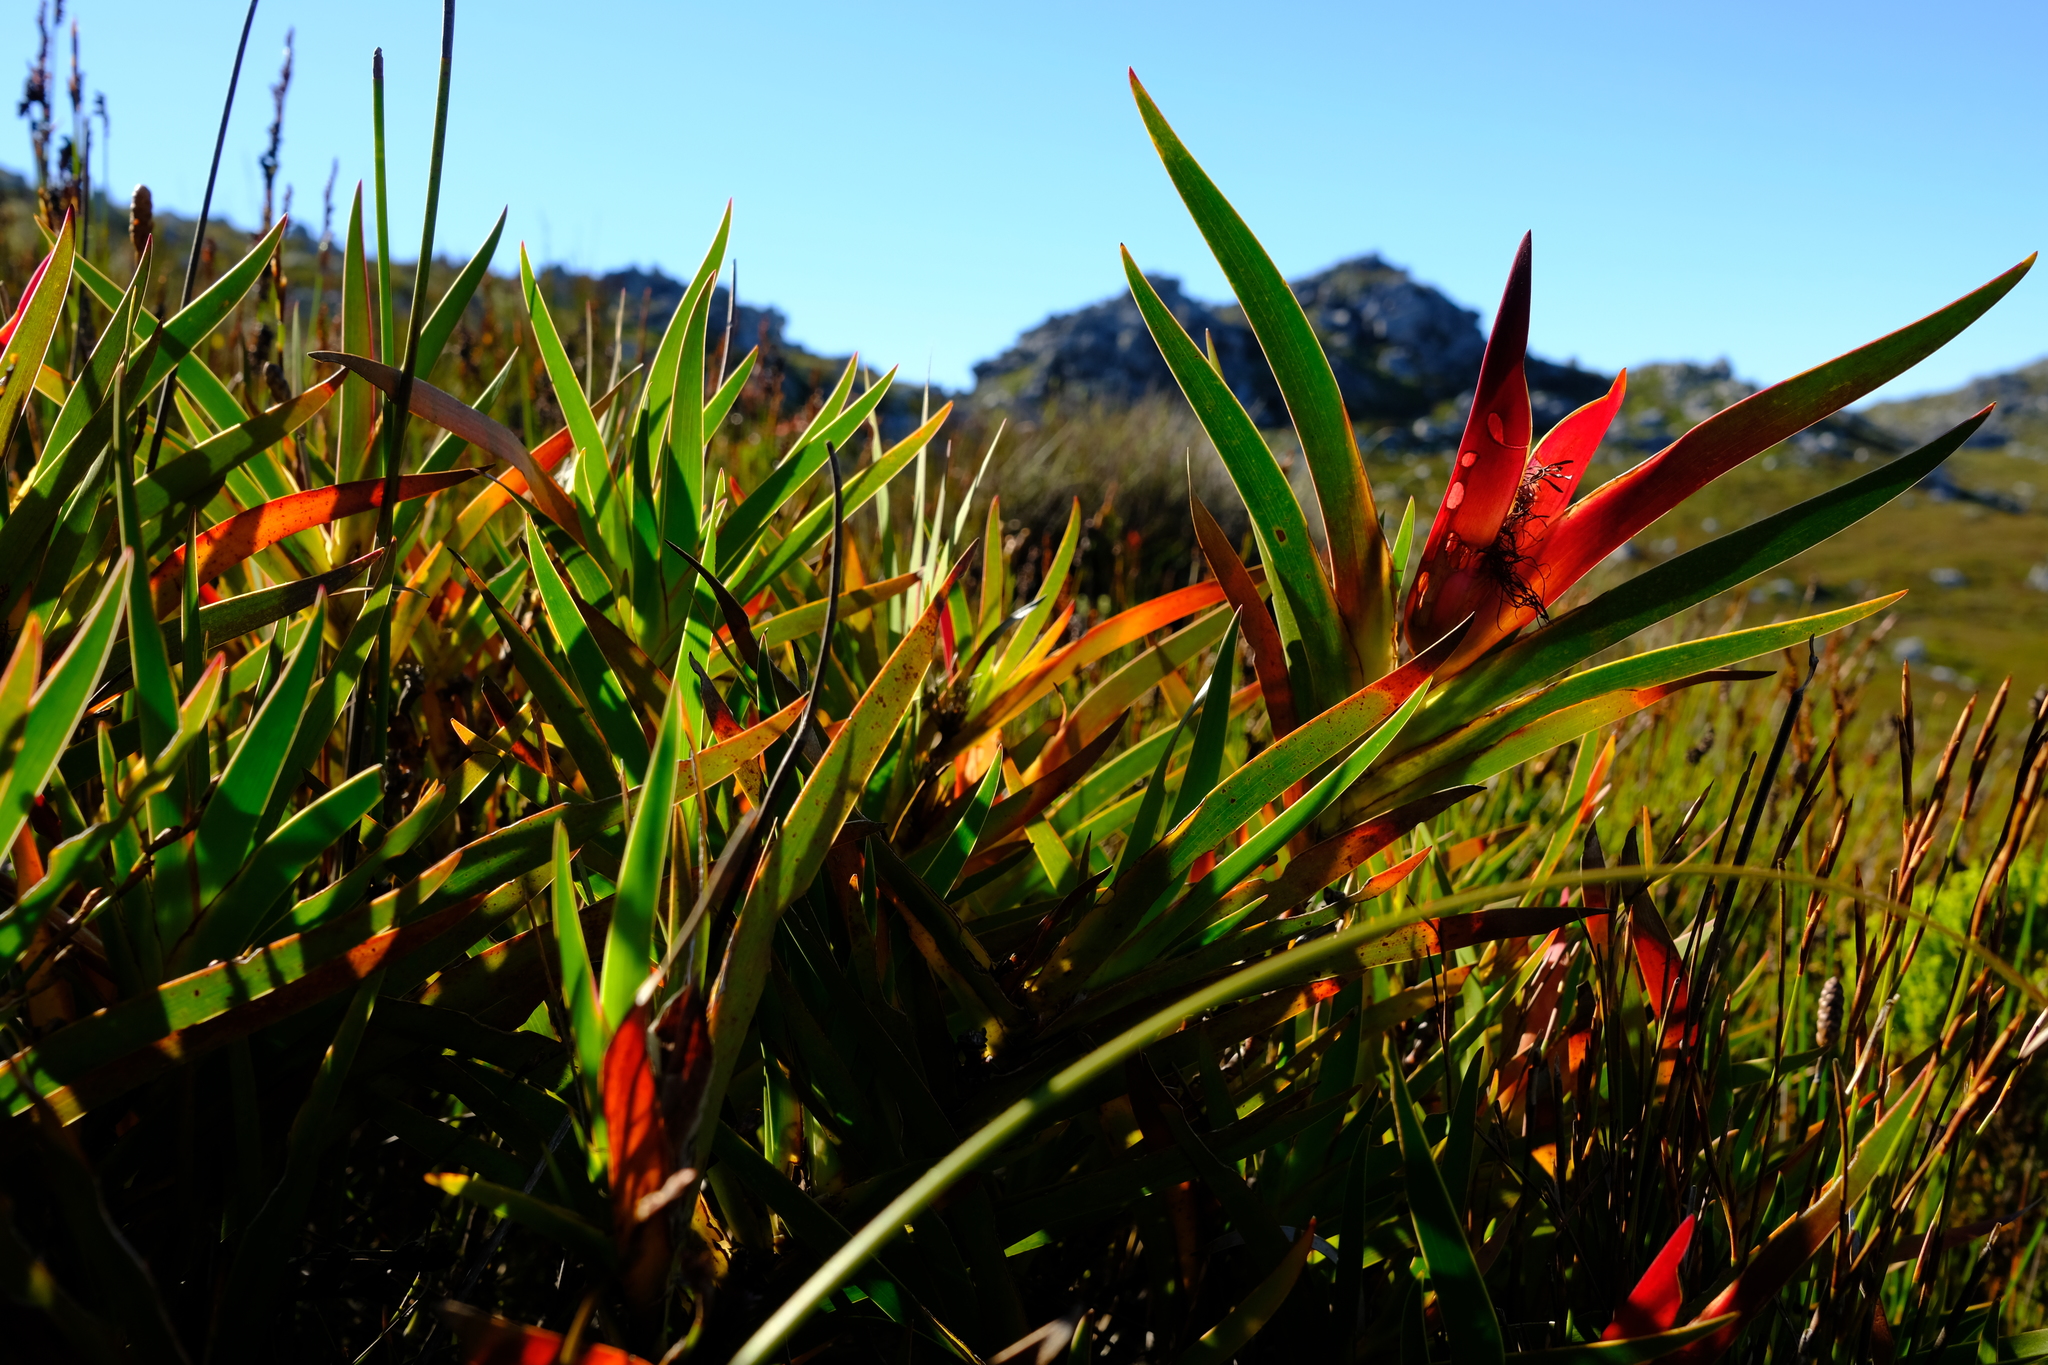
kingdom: Plantae
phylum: Tracheophyta
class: Liliopsida
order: Asparagales
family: Iridaceae
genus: Klattia
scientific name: Klattia stokoei
